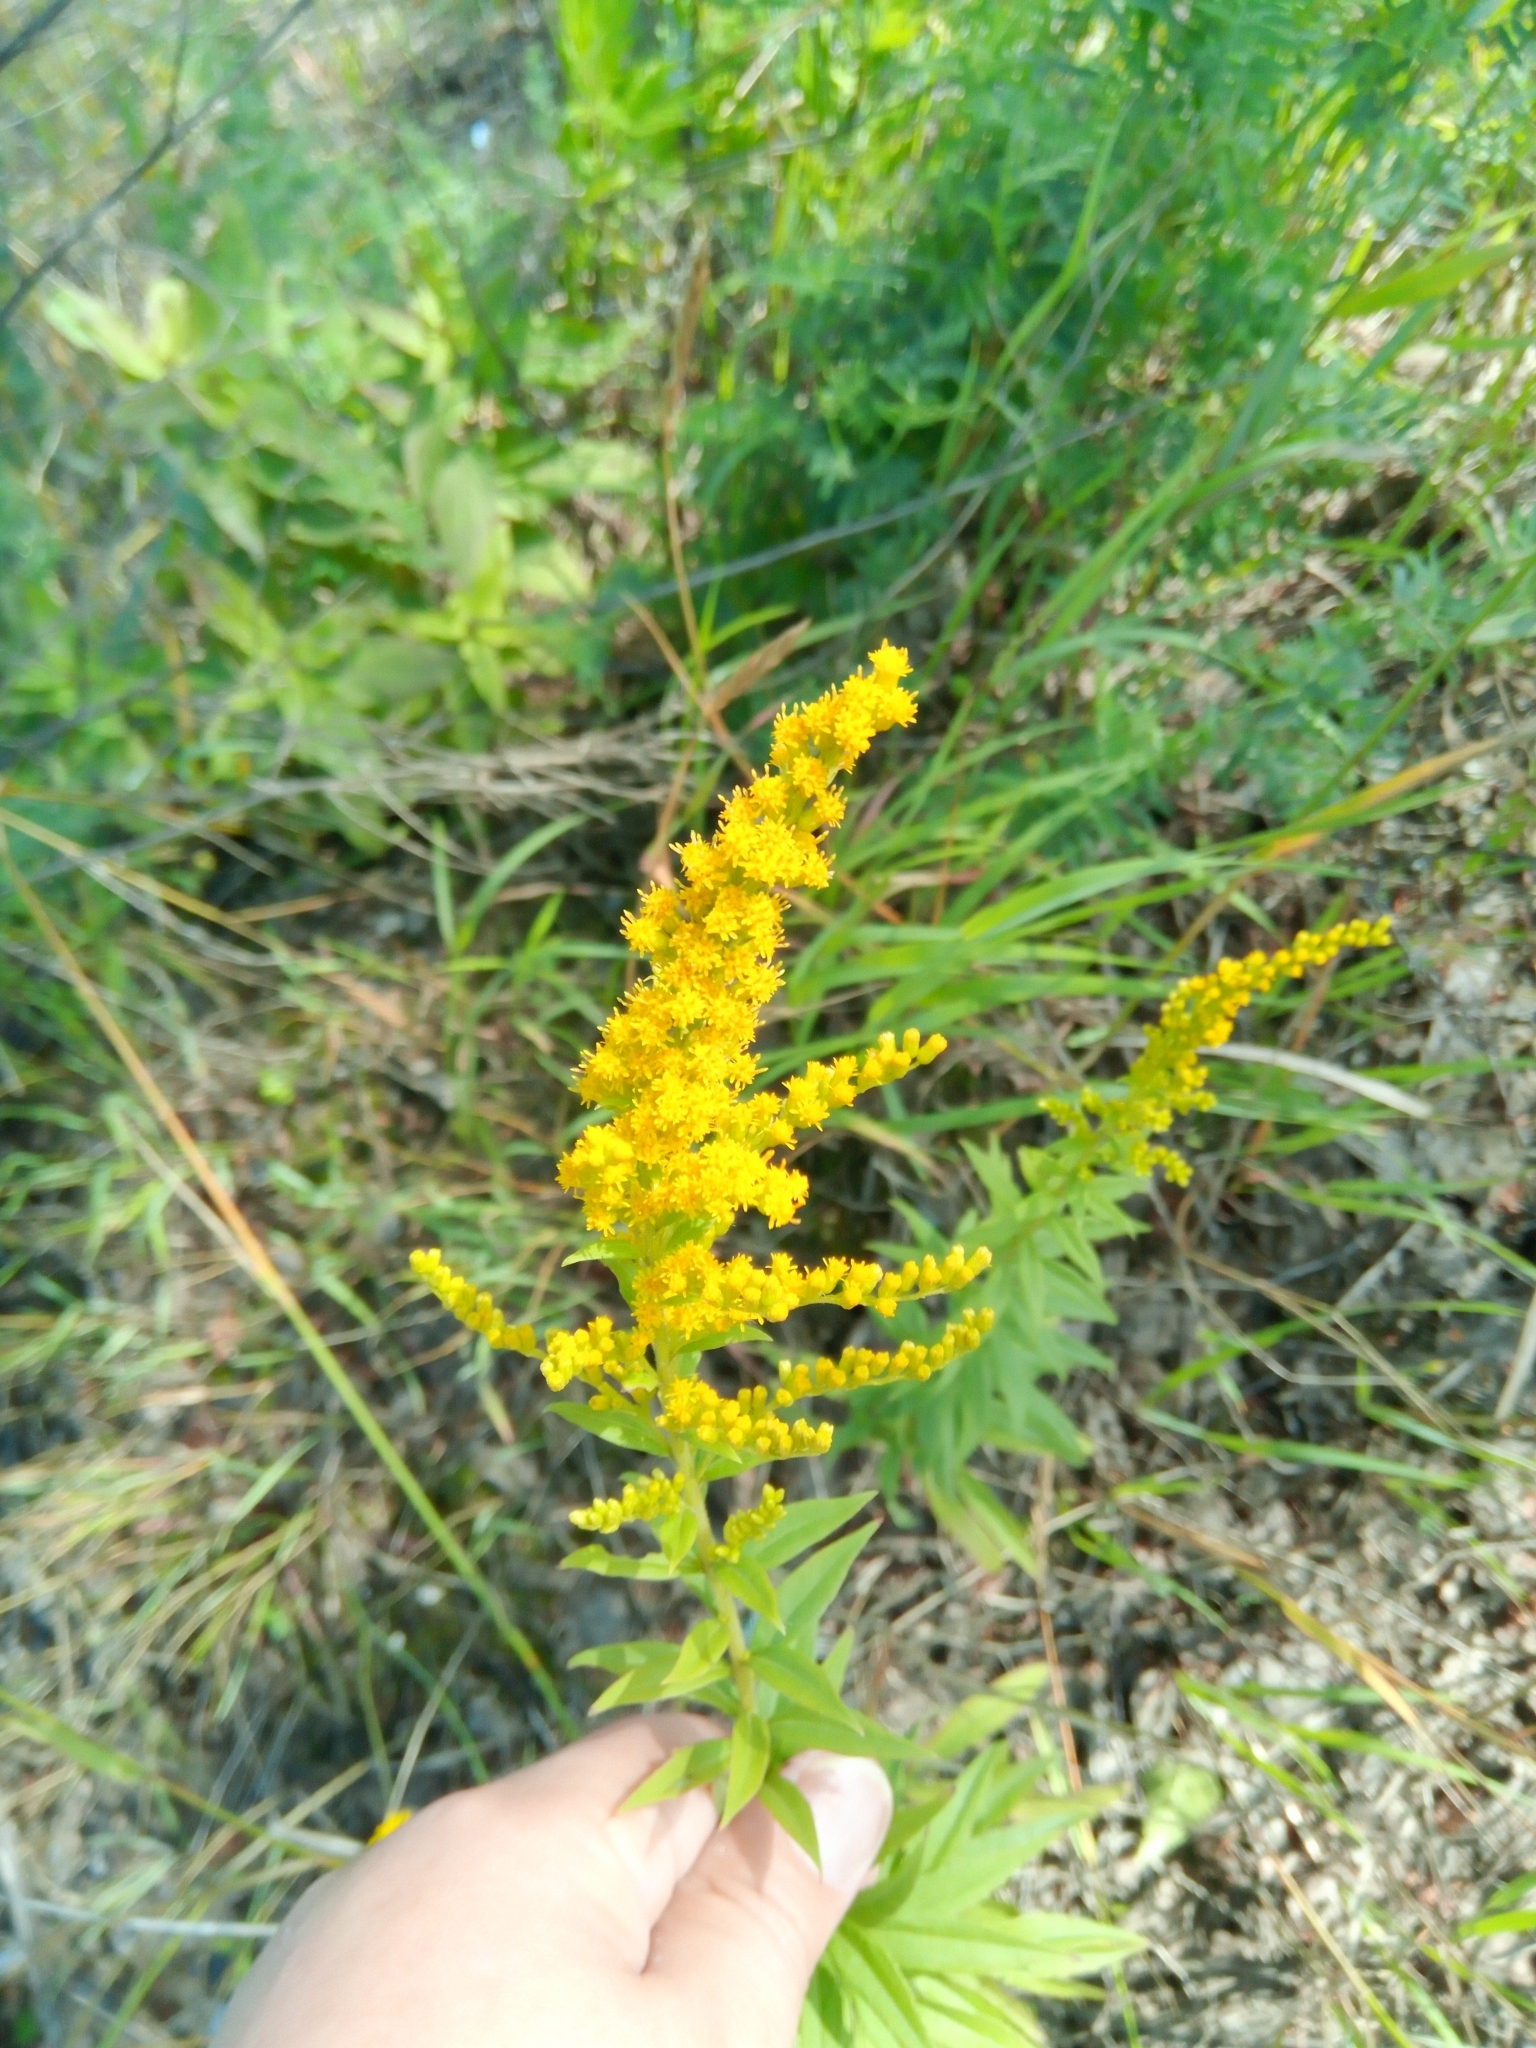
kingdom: Plantae
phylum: Tracheophyta
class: Magnoliopsida
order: Asterales
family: Asteraceae
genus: Solidago
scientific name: Solidago canadensis
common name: Canada goldenrod
